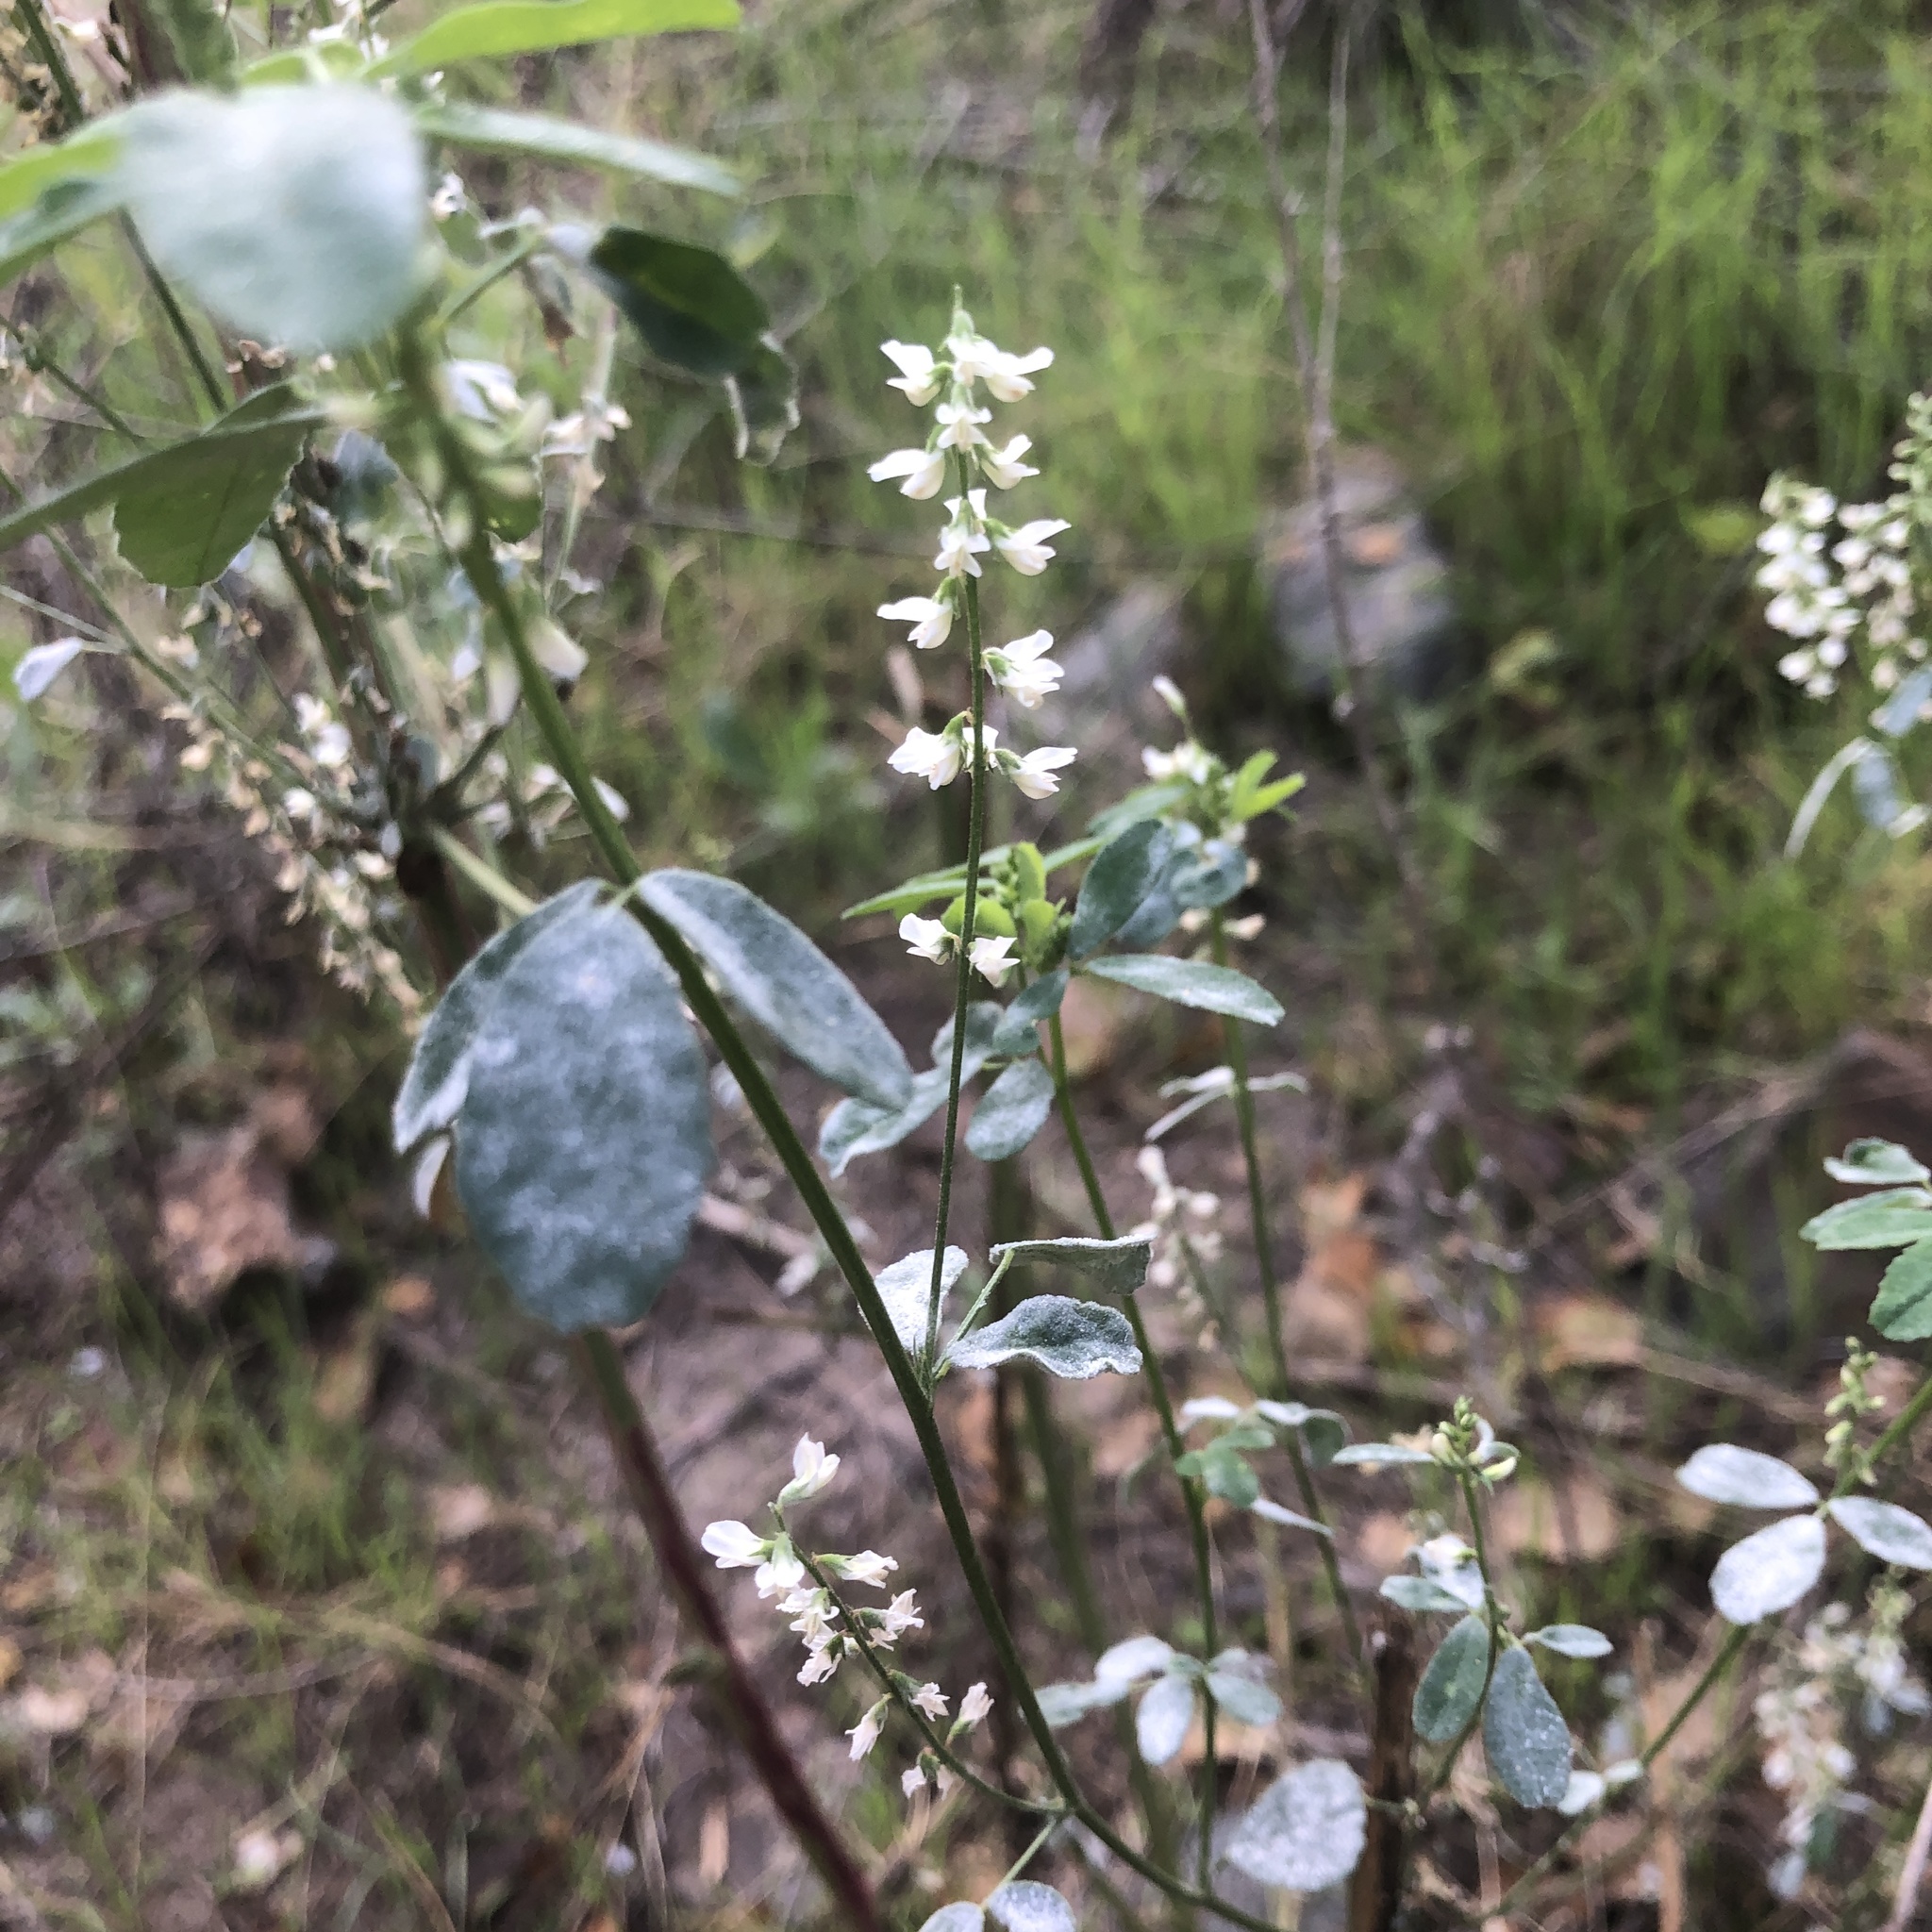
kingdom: Plantae
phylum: Tracheophyta
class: Magnoliopsida
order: Fabales
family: Fabaceae
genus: Melilotus
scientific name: Melilotus albus
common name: White melilot
